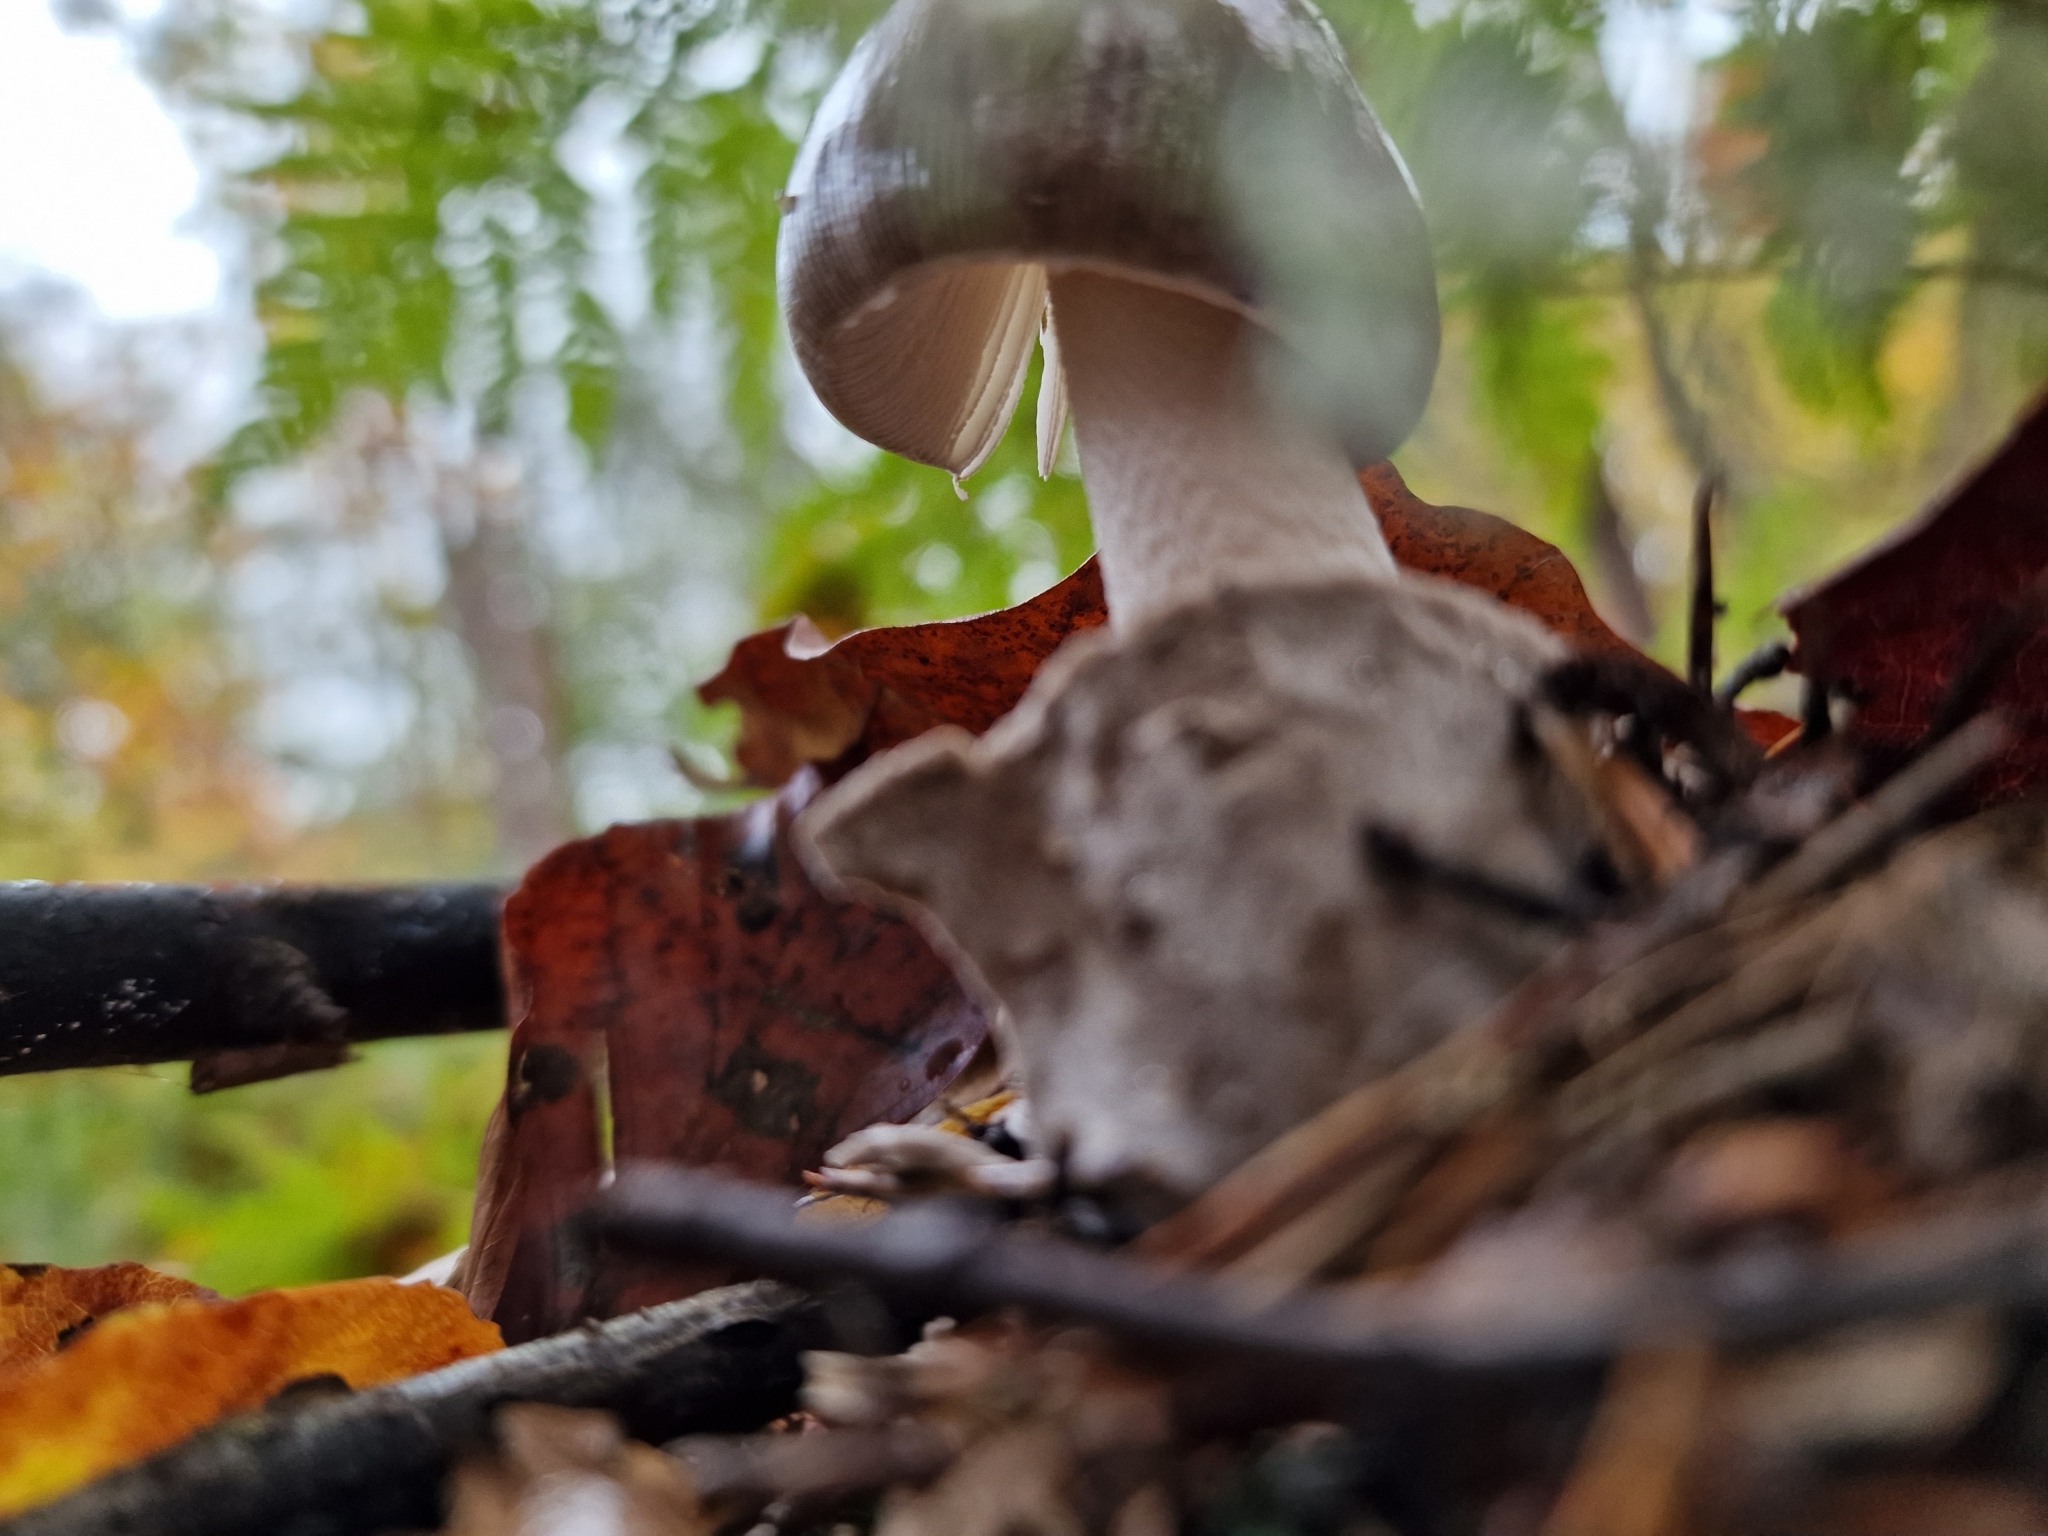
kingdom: Fungi
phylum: Basidiomycota
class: Agaricomycetes
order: Agaricales
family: Amanitaceae
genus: Amanita
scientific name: Amanita vaginata
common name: Grisette
